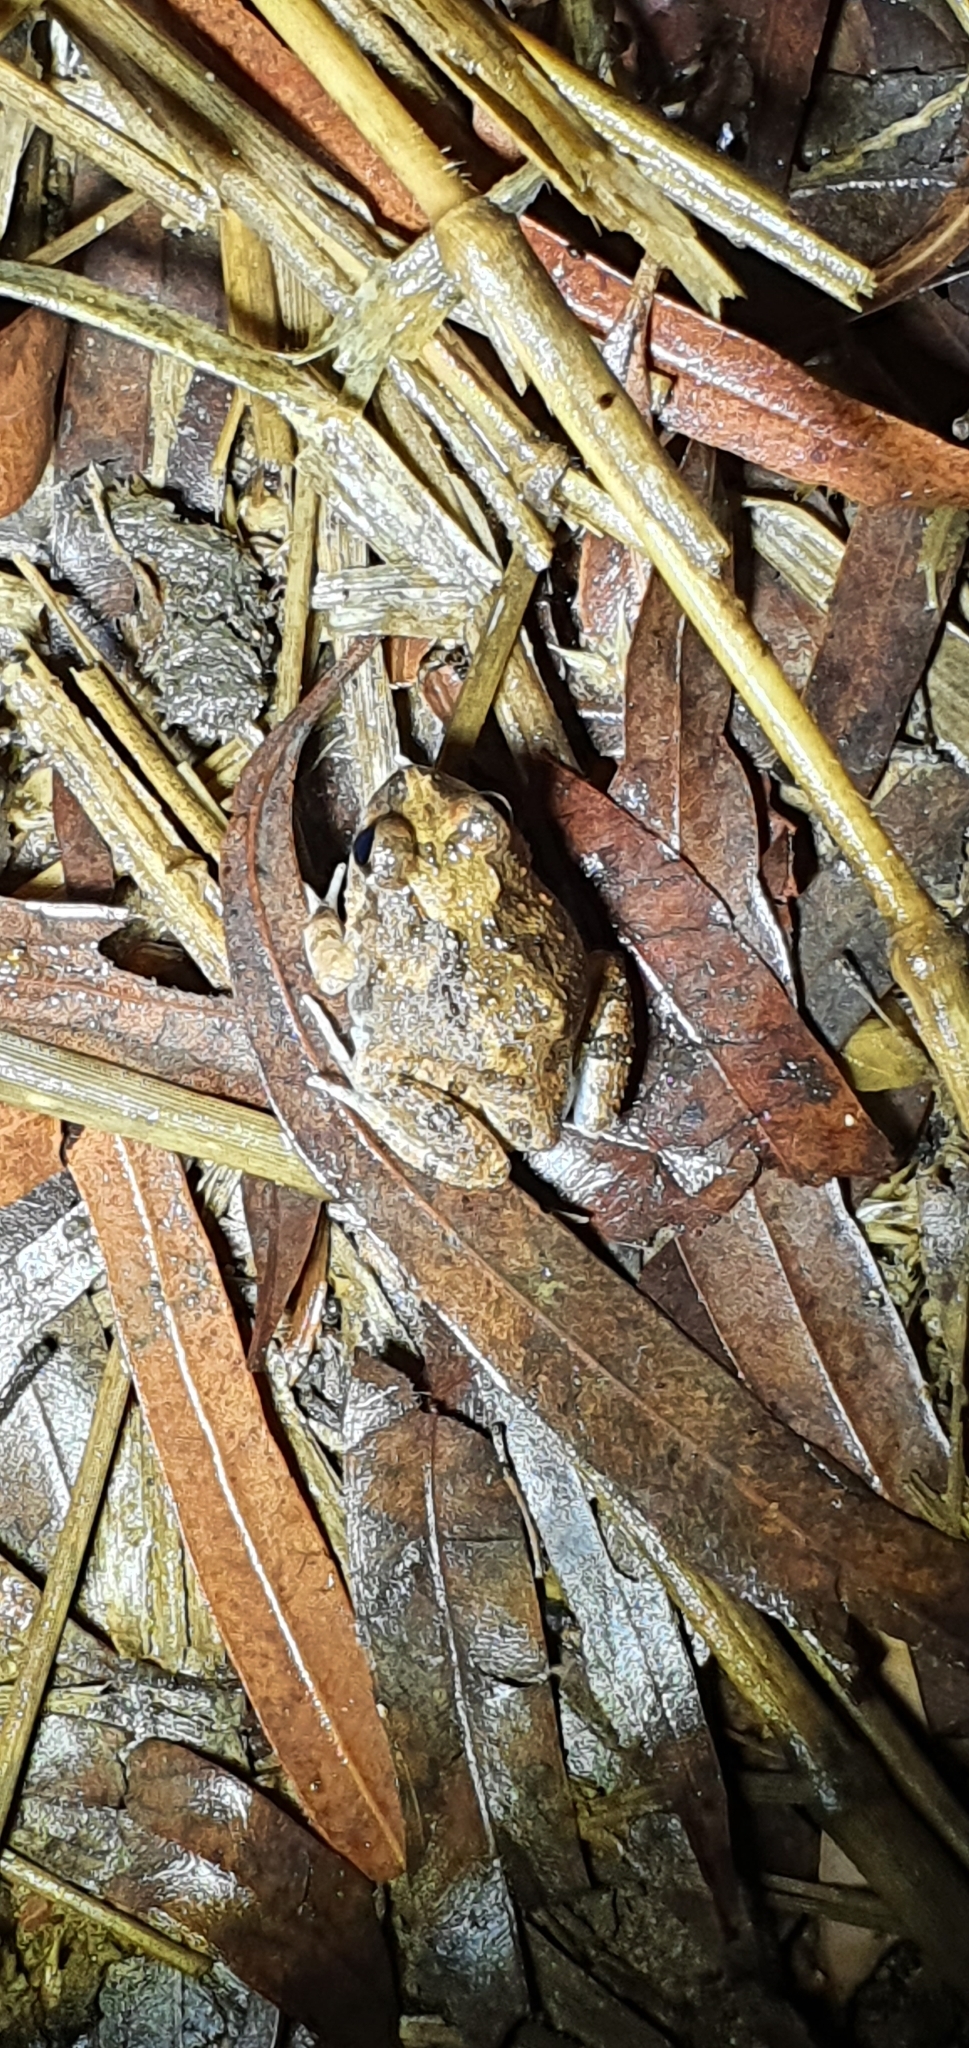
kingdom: Animalia
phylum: Chordata
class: Amphibia
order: Anura
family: Limnodynastidae
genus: Platyplectrum
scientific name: Platyplectrum ornatum
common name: Ornate burrowing frog
